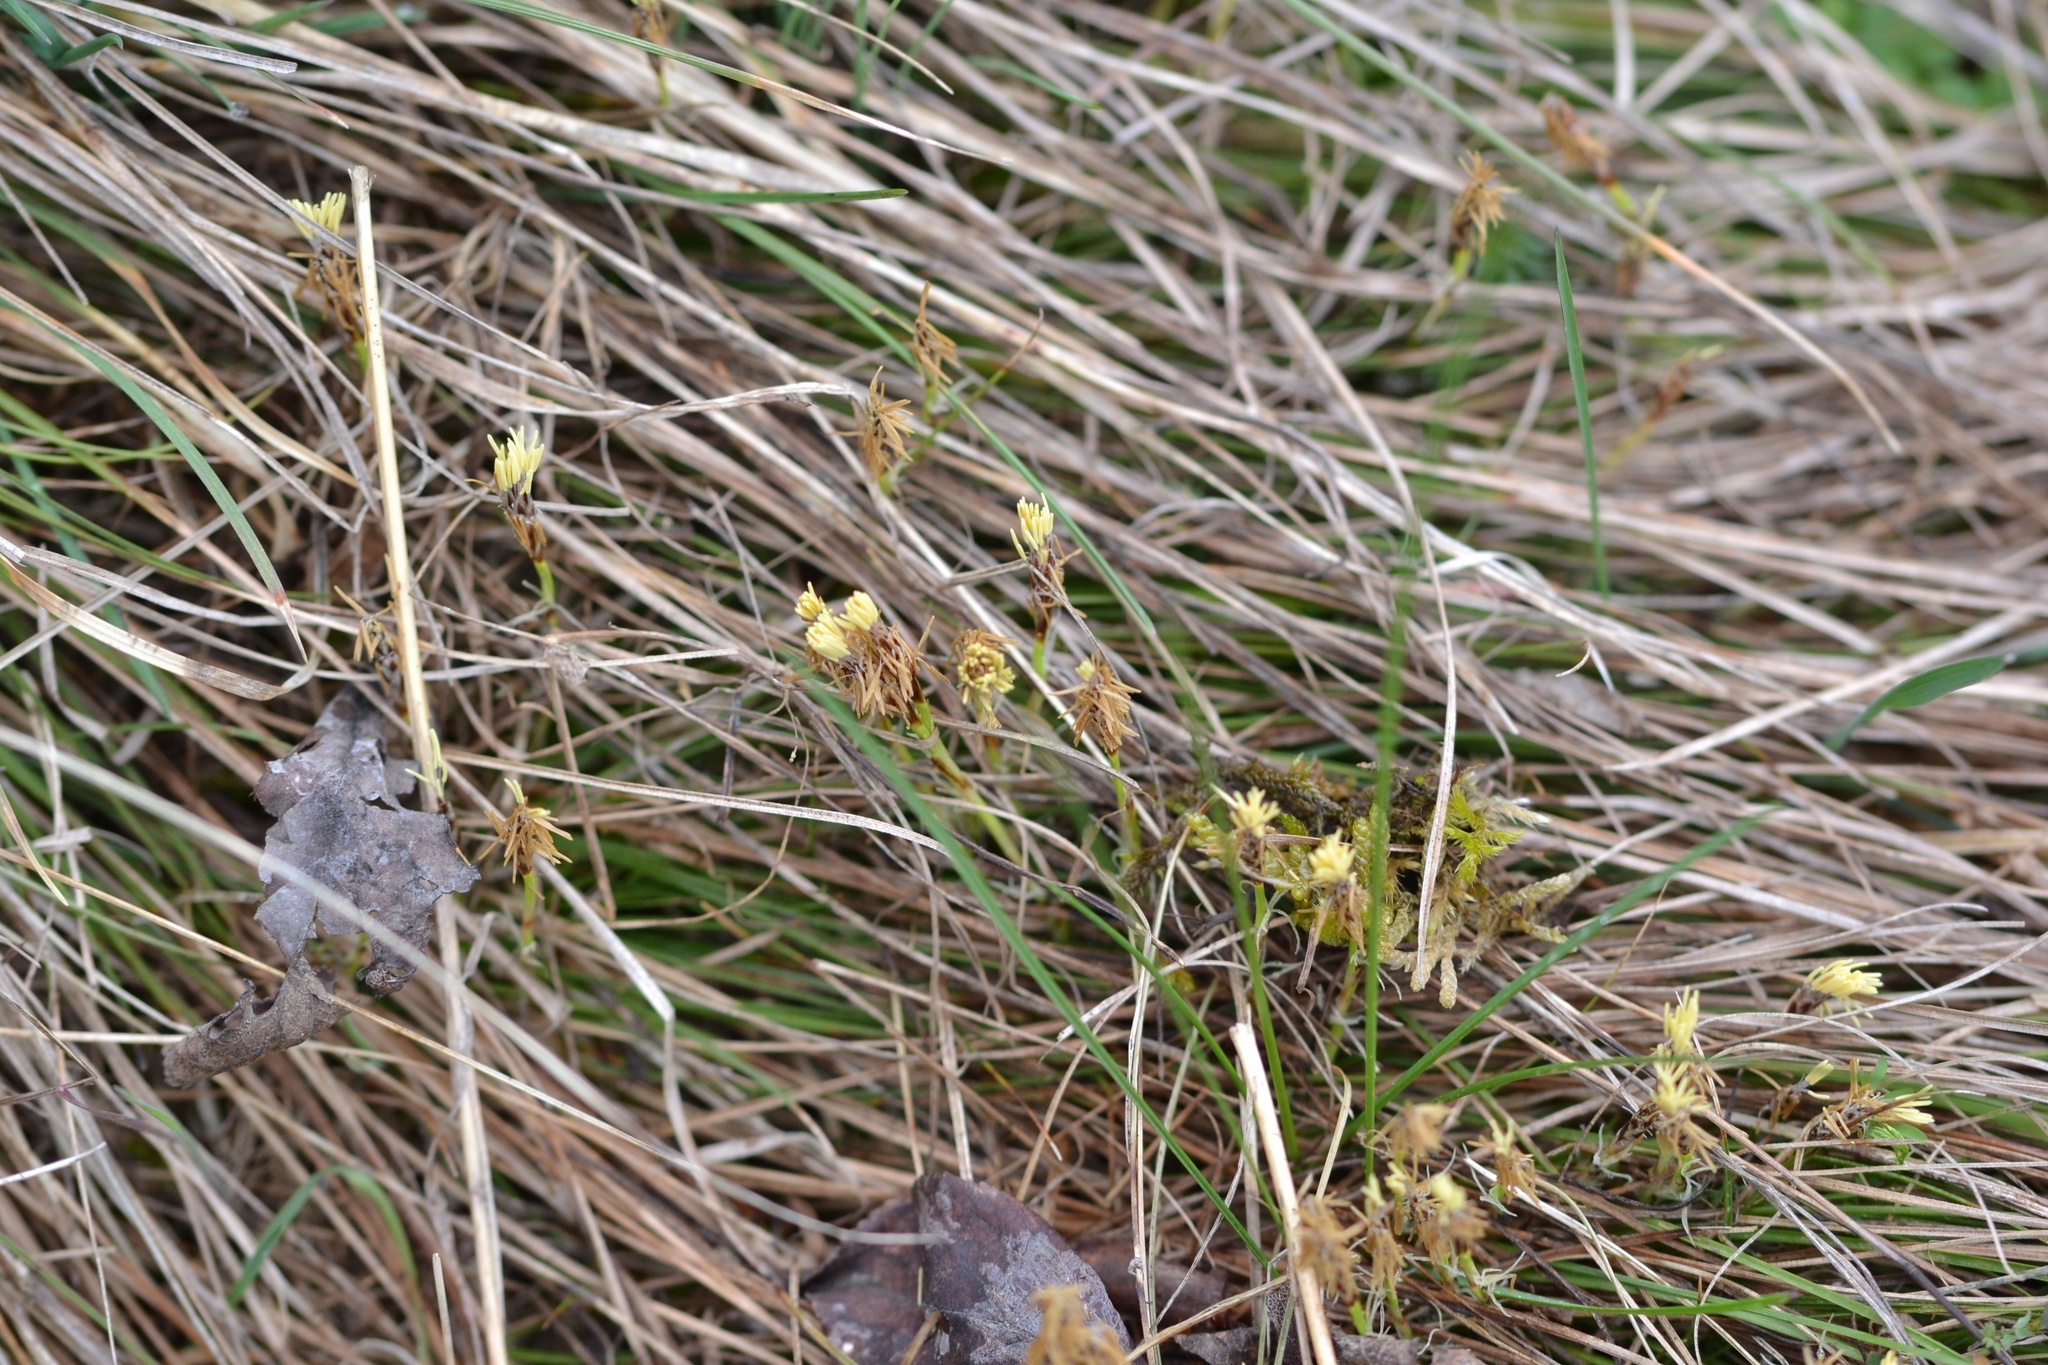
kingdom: Plantae
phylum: Tracheophyta
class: Liliopsida
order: Poales
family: Cyperaceae
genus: Carex
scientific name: Carex humilis
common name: Dwarf sedge
